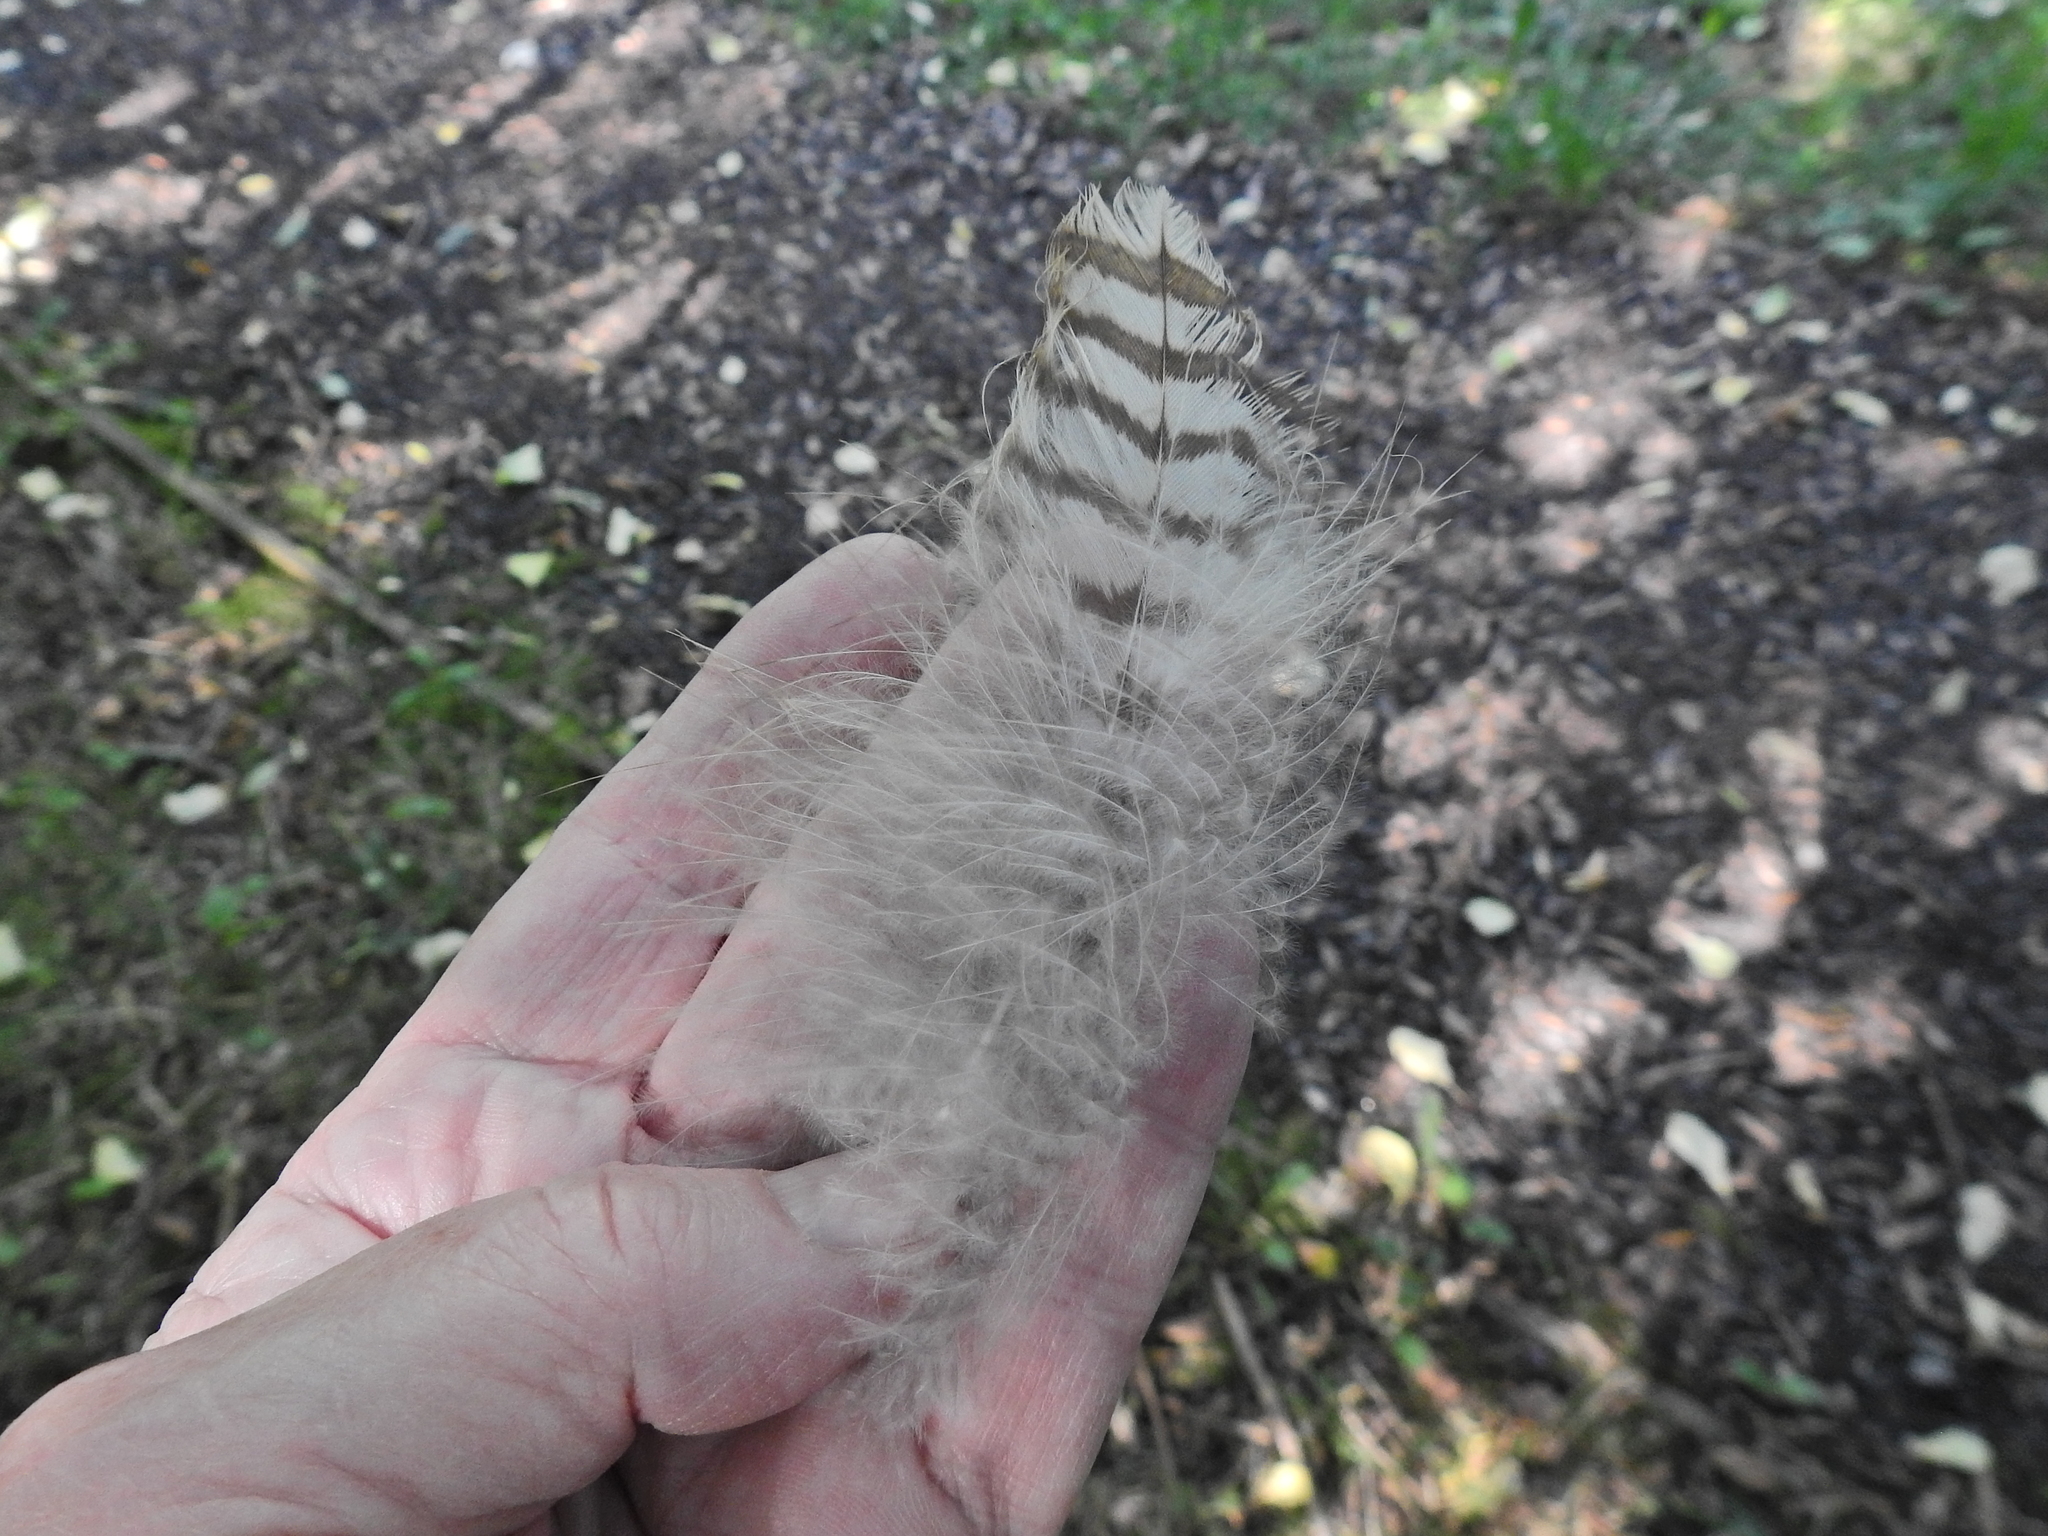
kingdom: Animalia
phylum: Chordata
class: Aves
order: Accipitriformes
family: Accipitridae
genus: Buteo
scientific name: Buteo buteo
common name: Common buzzard
